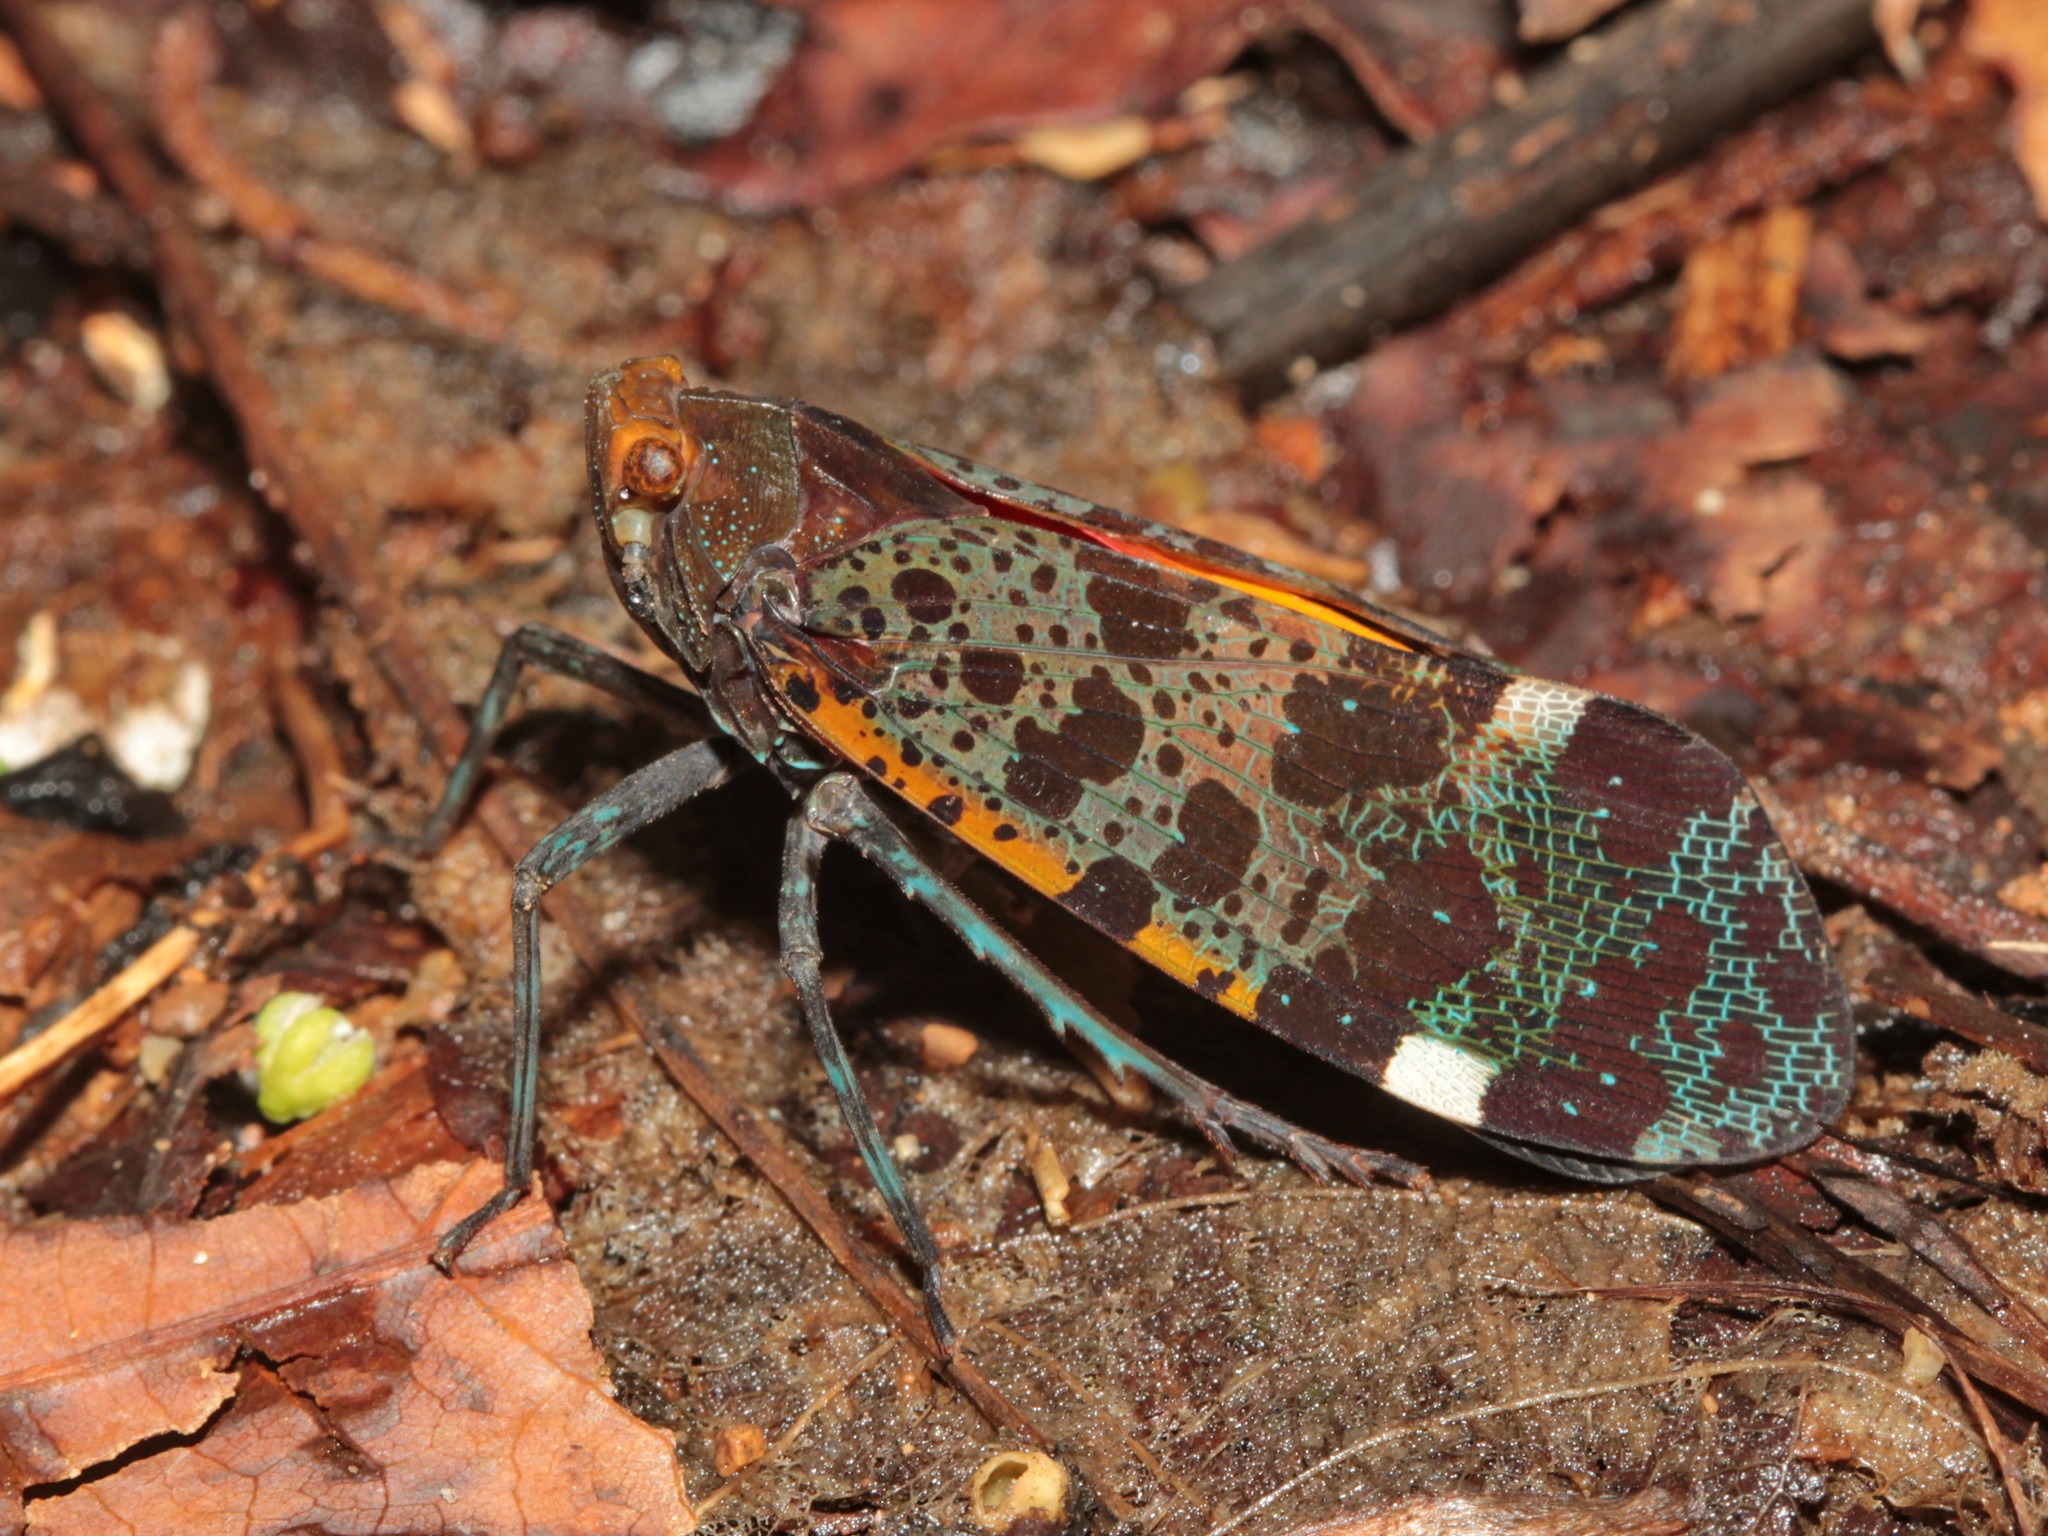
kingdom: Animalia
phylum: Arthropoda
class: Insecta
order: Hemiptera
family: Fulgoridae
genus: Penthicodes
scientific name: Penthicodes variegata
